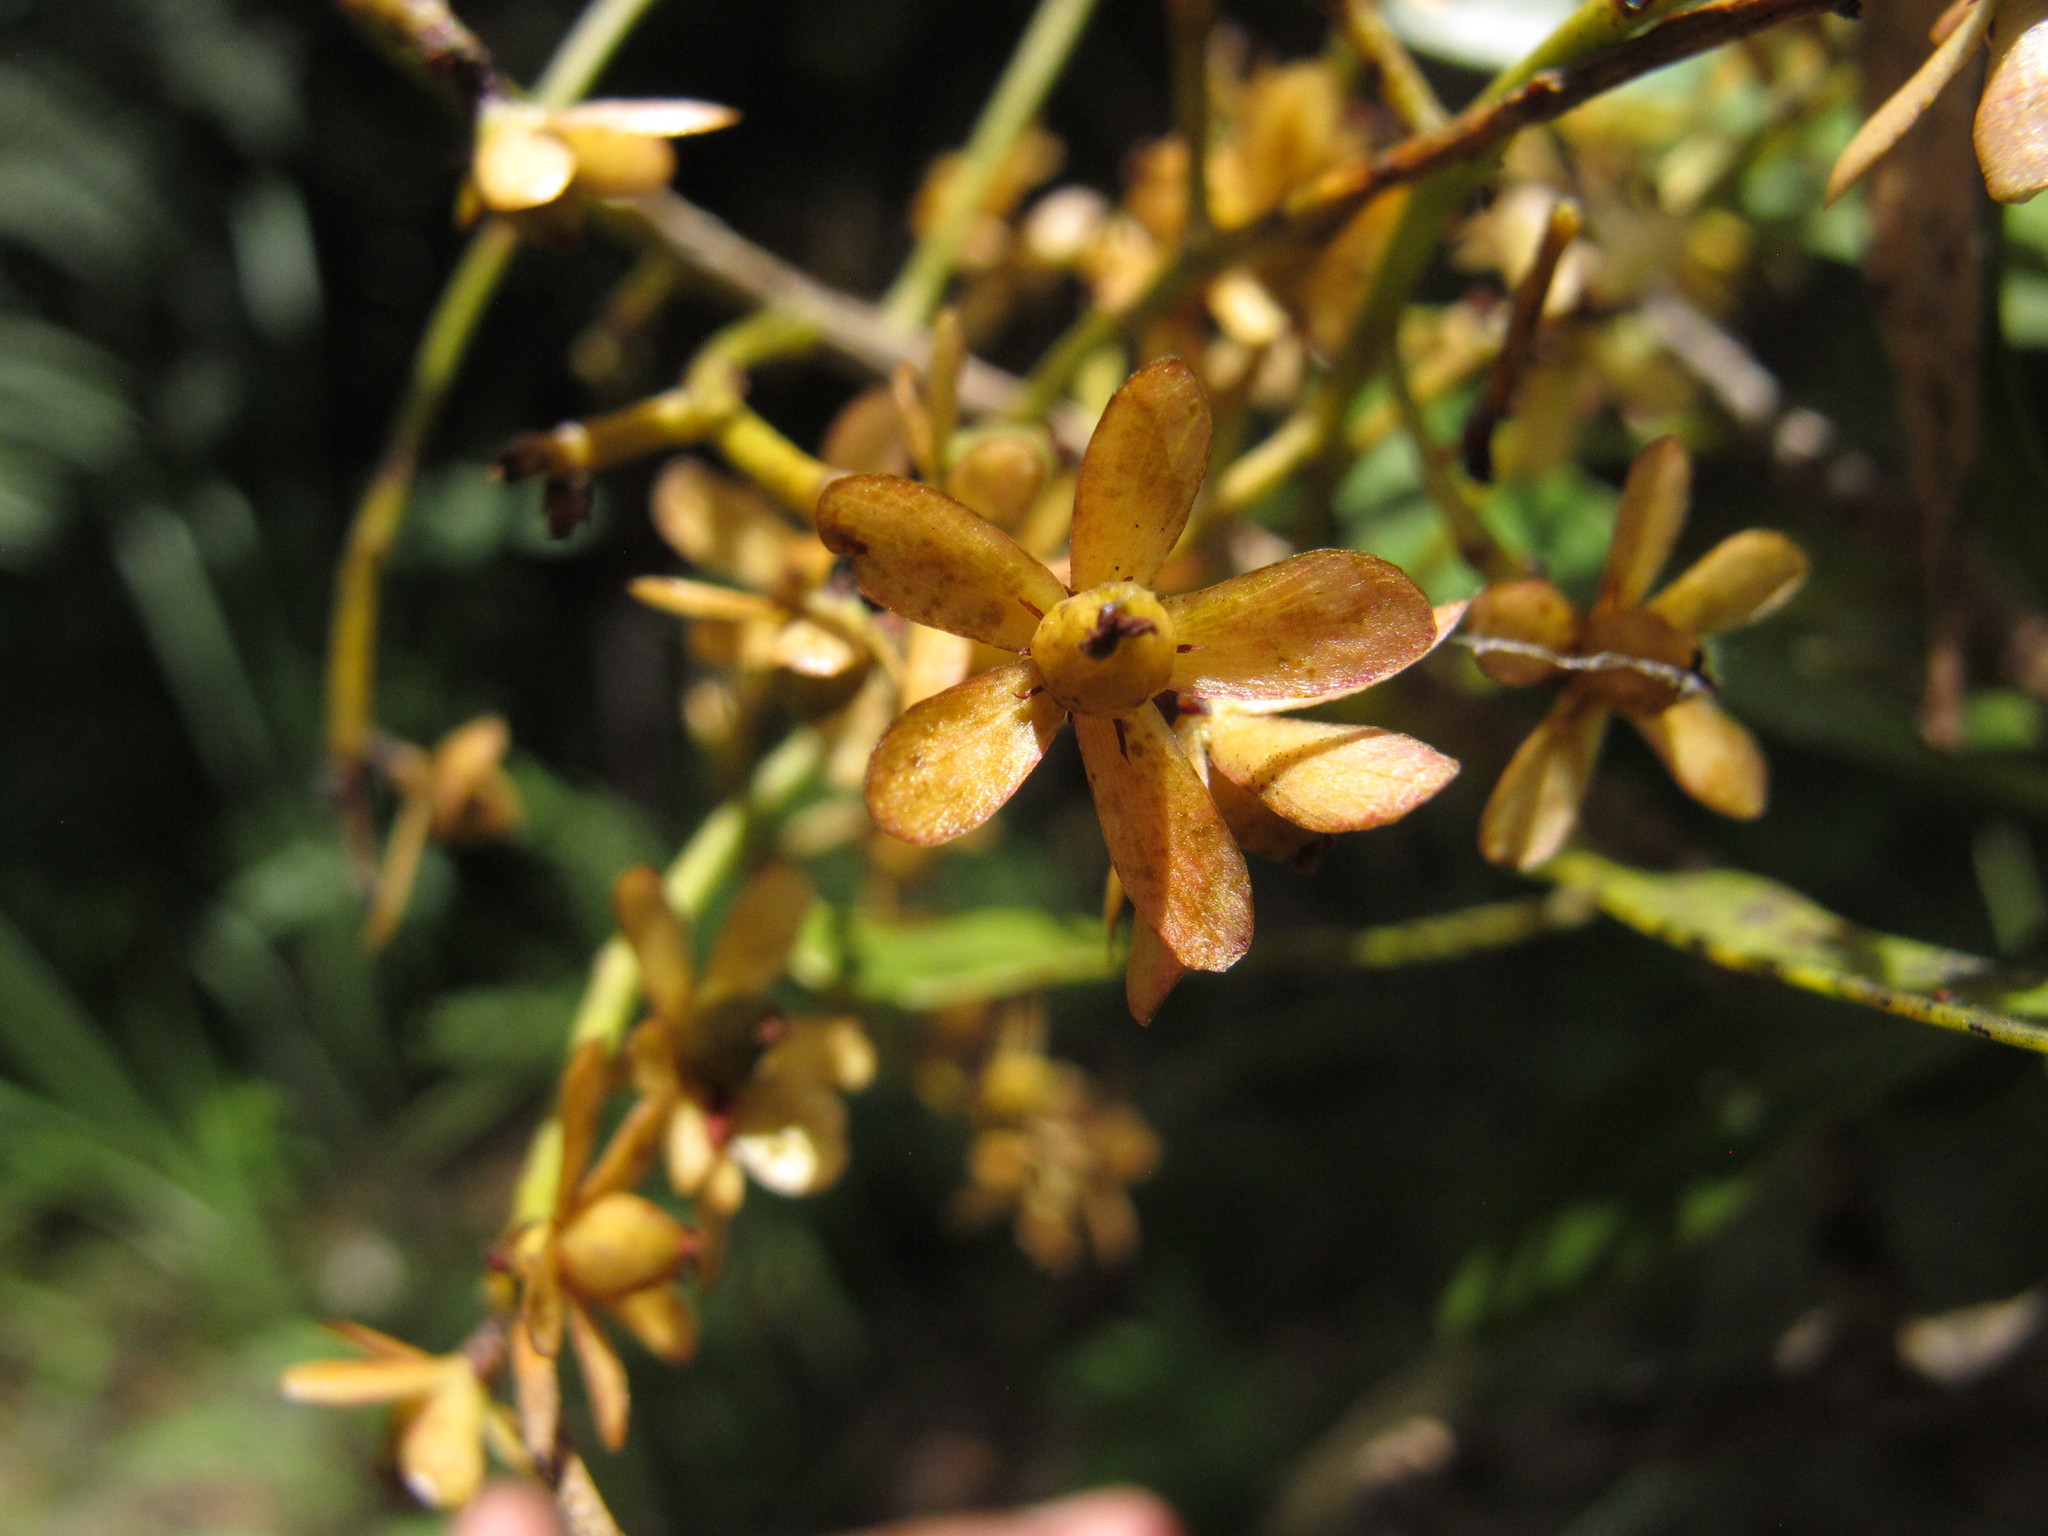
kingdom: Plantae
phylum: Tracheophyta
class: Magnoliopsida
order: Caryophyllales
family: Asteropeiaceae
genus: Asteropeia
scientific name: Asteropeia labatii
